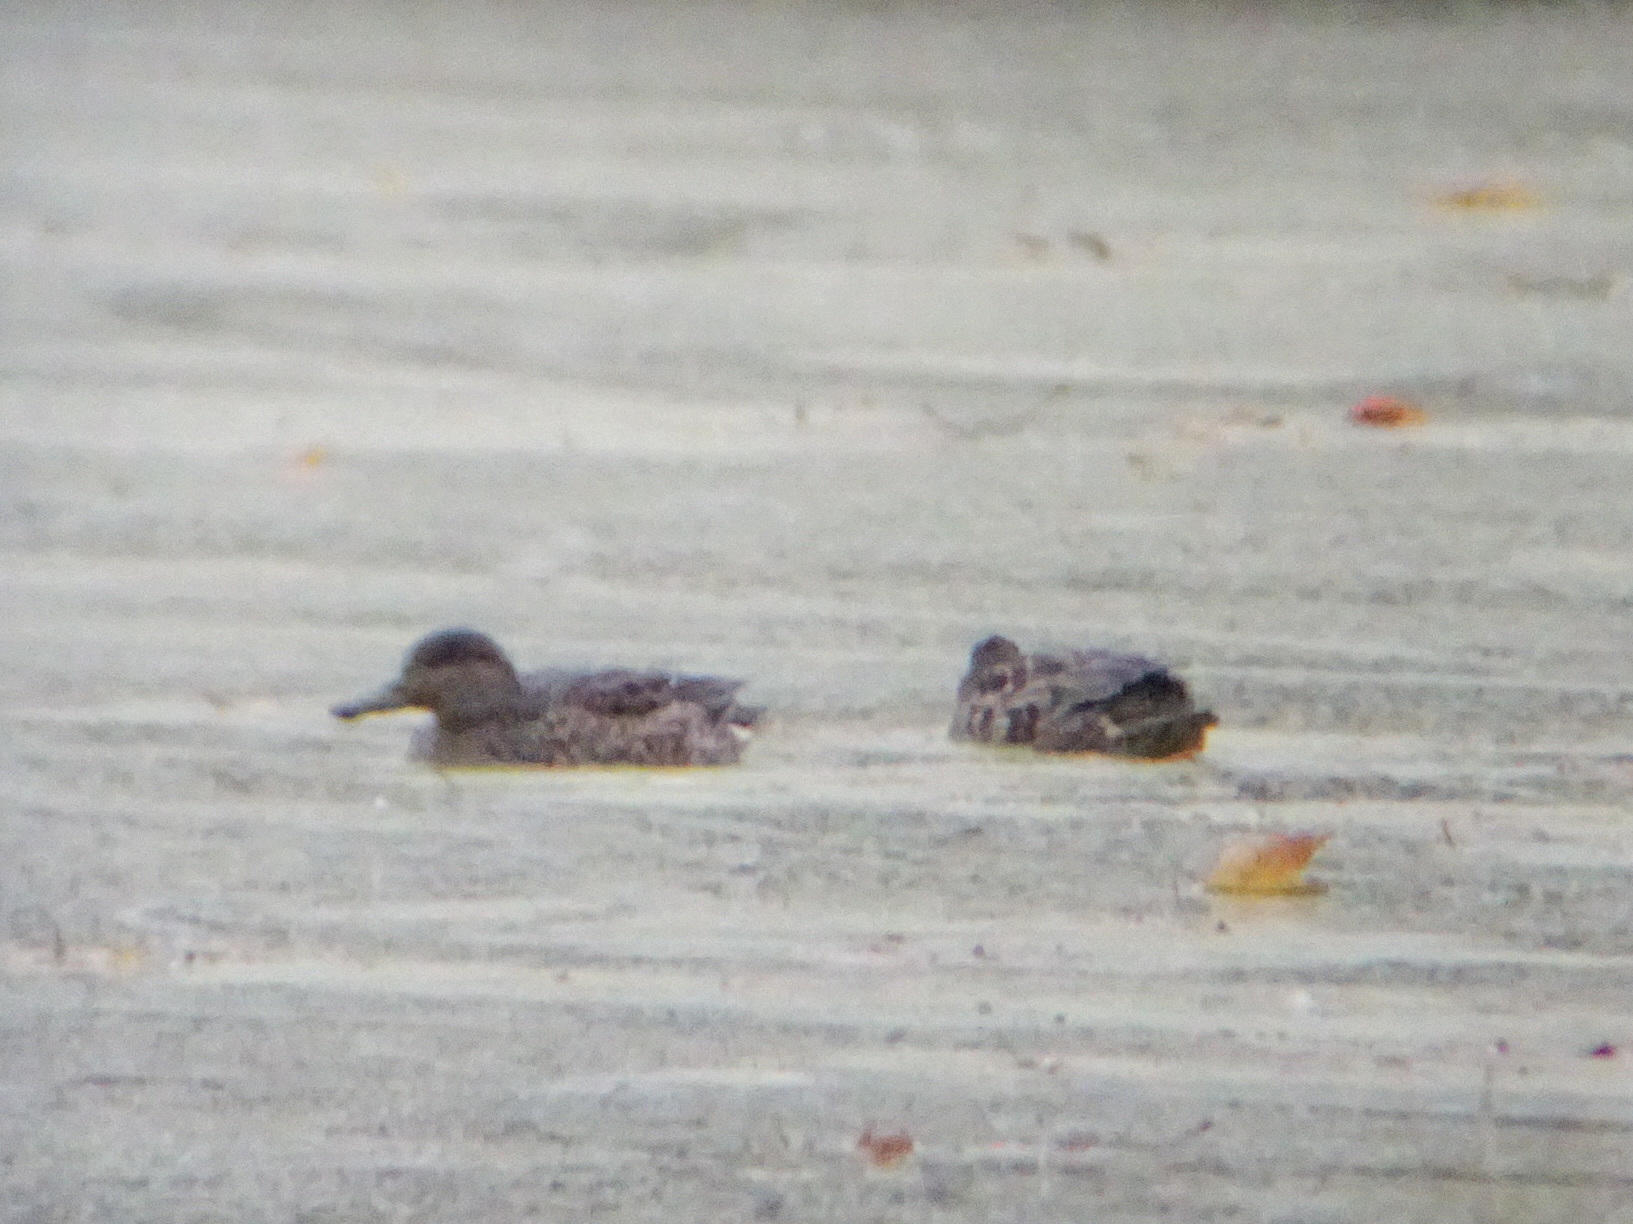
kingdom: Animalia
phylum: Chordata
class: Aves
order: Anseriformes
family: Anatidae
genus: Anas
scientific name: Anas crecca
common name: Eurasian teal
